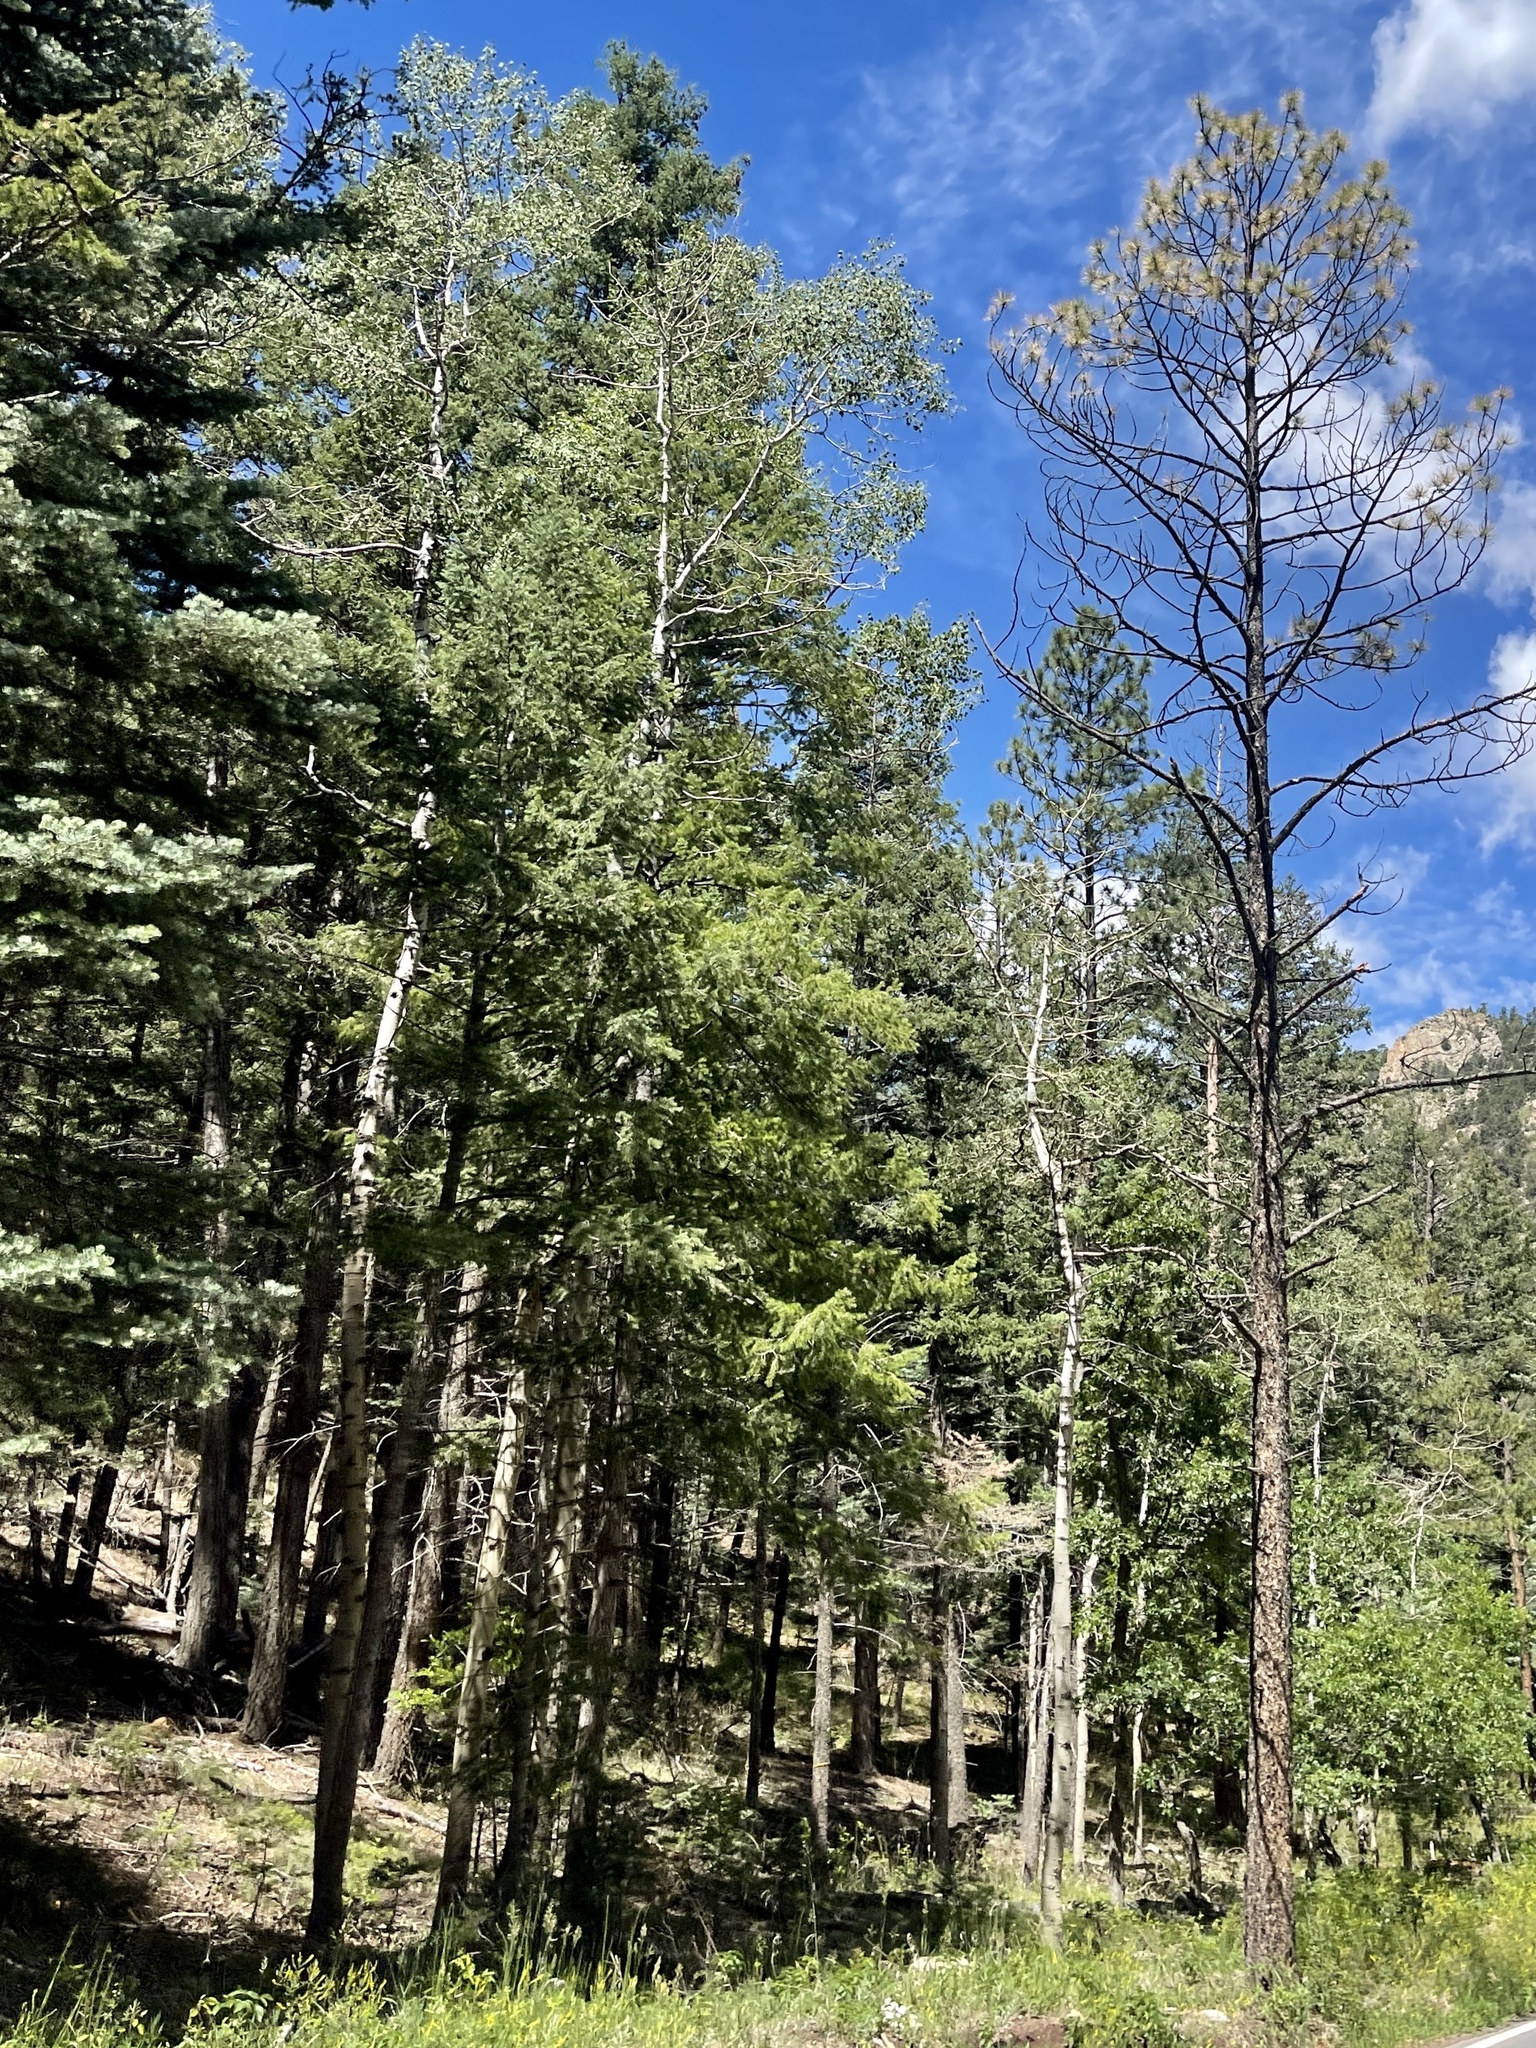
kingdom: Plantae
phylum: Tracheophyta
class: Magnoliopsida
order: Malpighiales
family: Salicaceae
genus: Populus
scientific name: Populus tremuloides
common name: Quaking aspen
